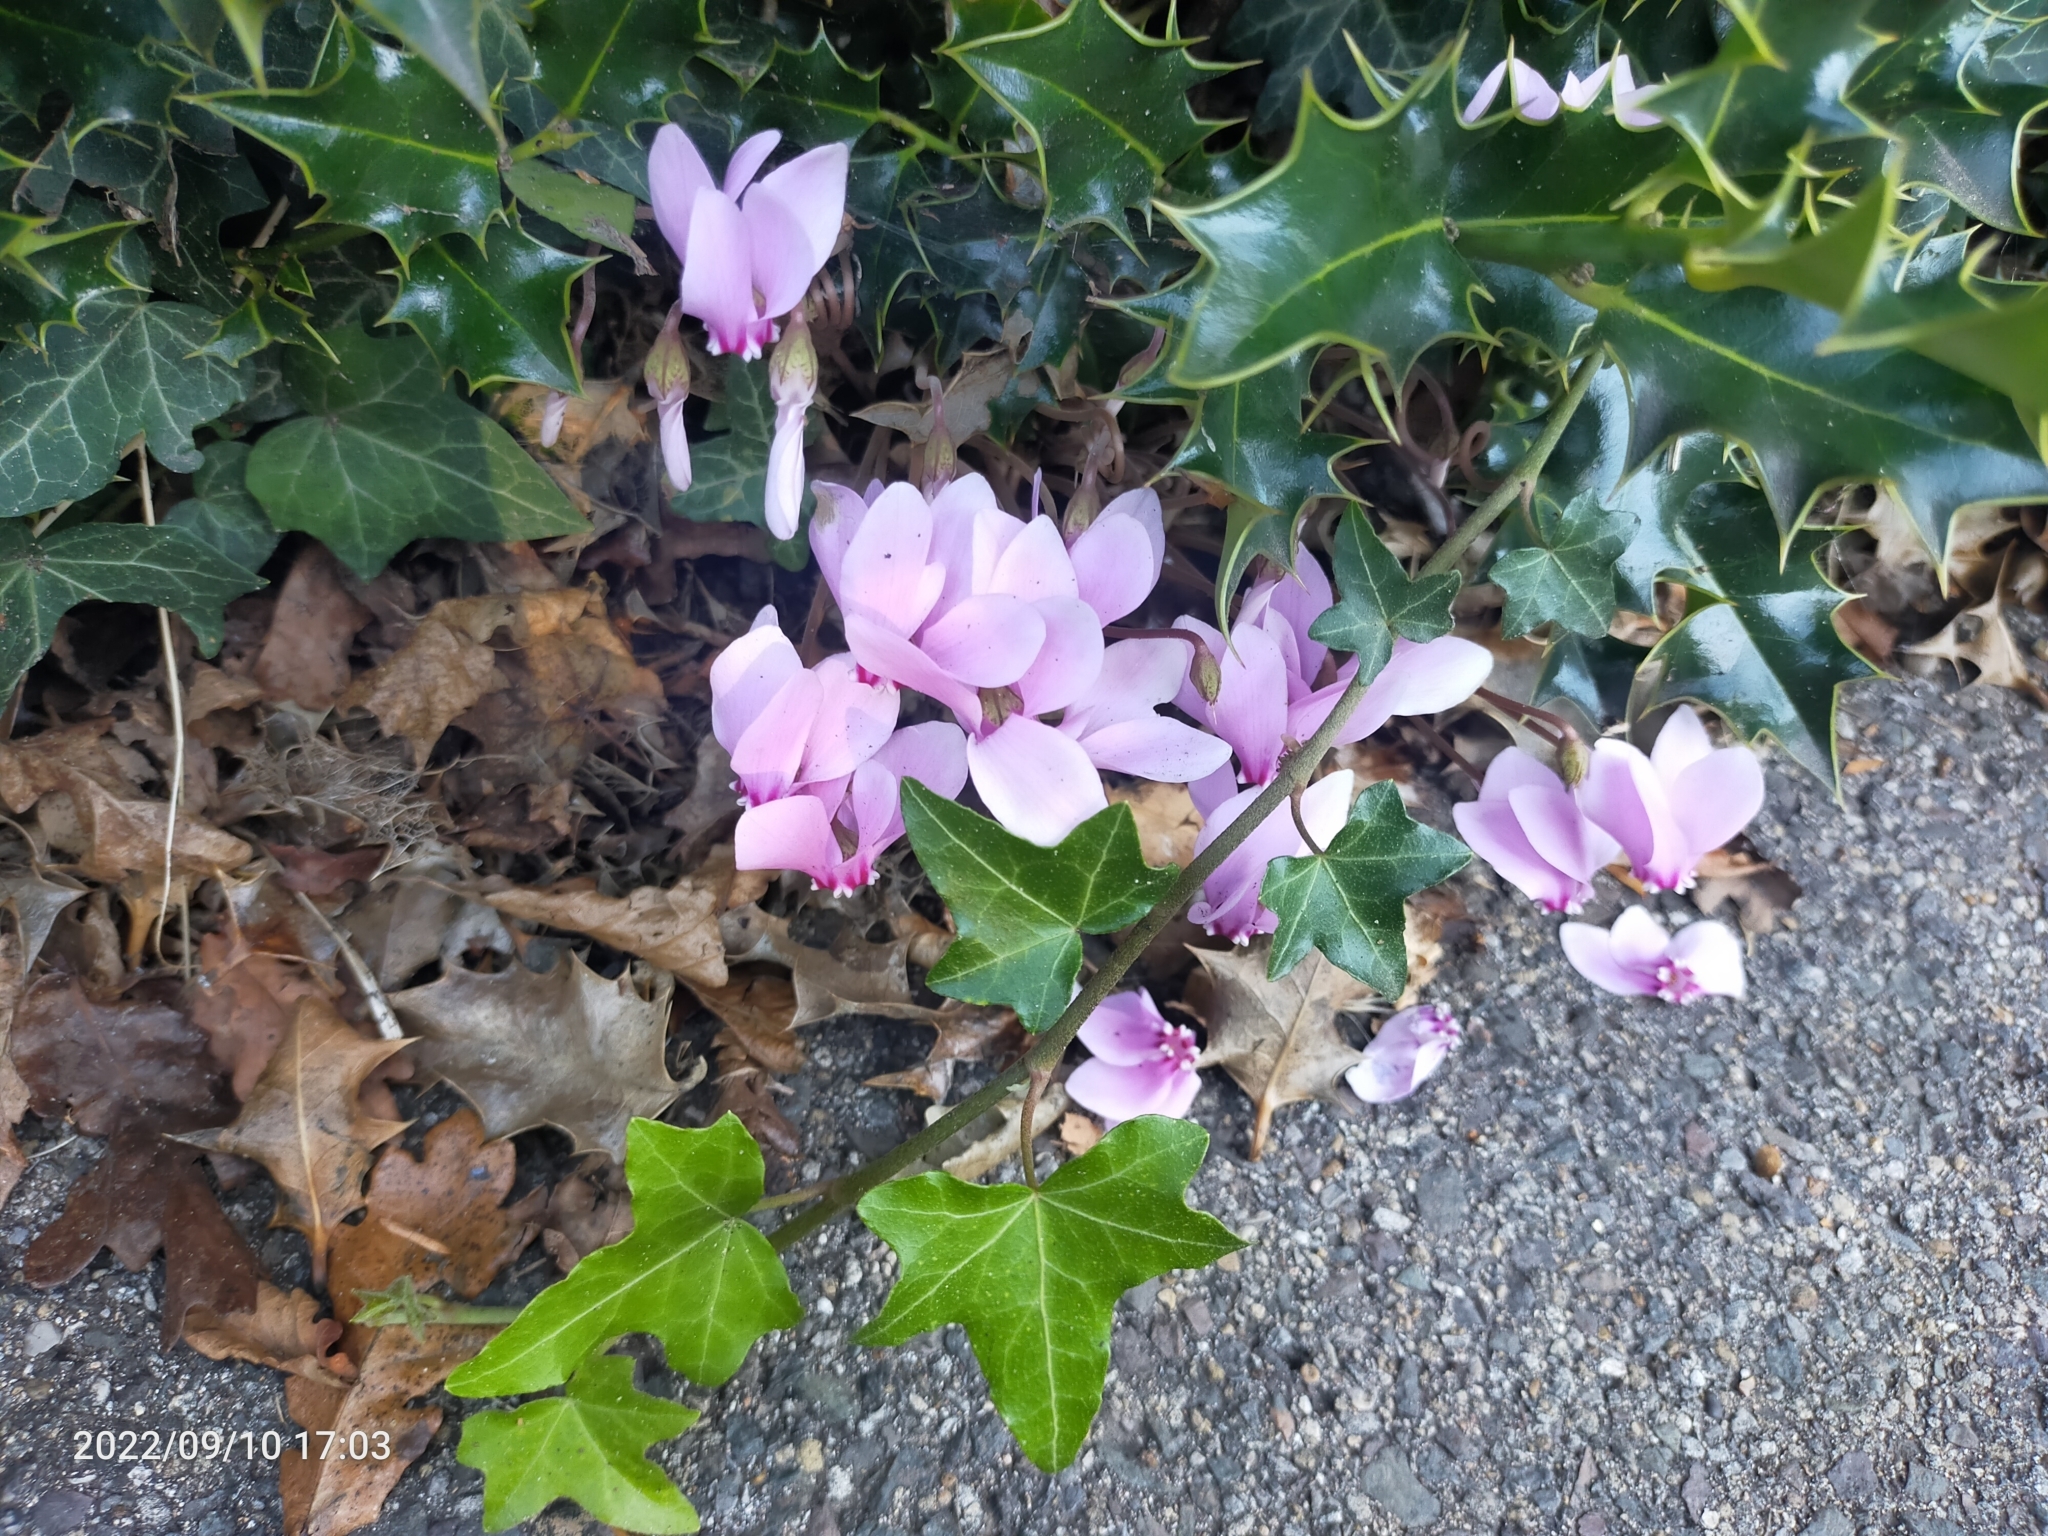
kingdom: Plantae
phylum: Tracheophyta
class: Magnoliopsida
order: Ericales
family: Primulaceae
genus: Cyclamen
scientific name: Cyclamen hederifolium
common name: Sowbread
